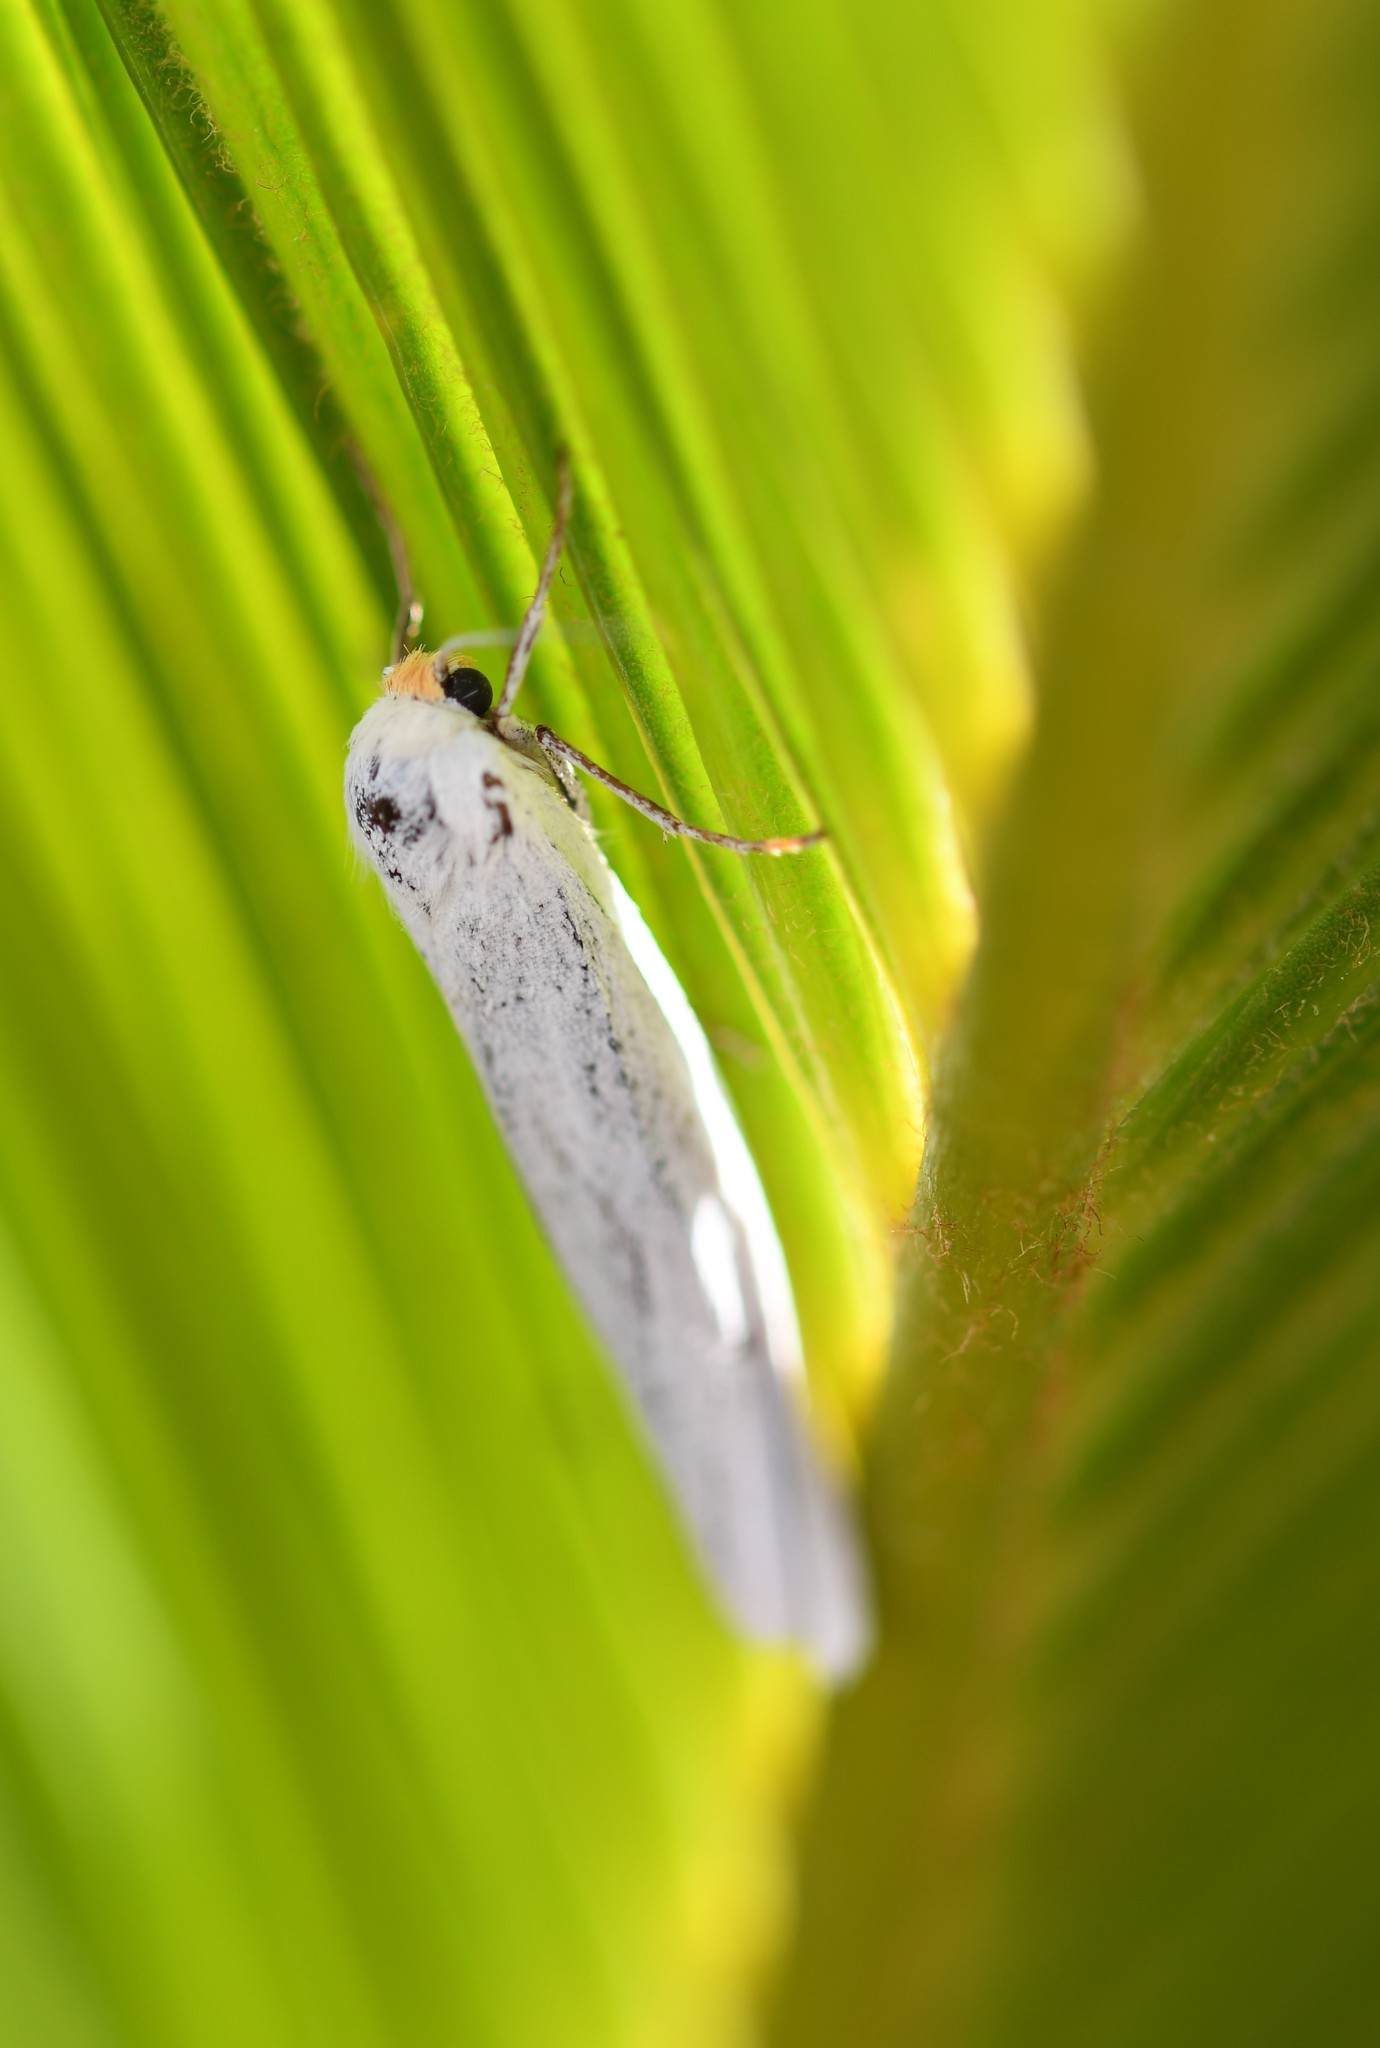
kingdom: Animalia
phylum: Arthropoda
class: Insecta
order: Lepidoptera
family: Erebidae
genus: Coscinia
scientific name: Coscinia cribraria
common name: Speckled footman
